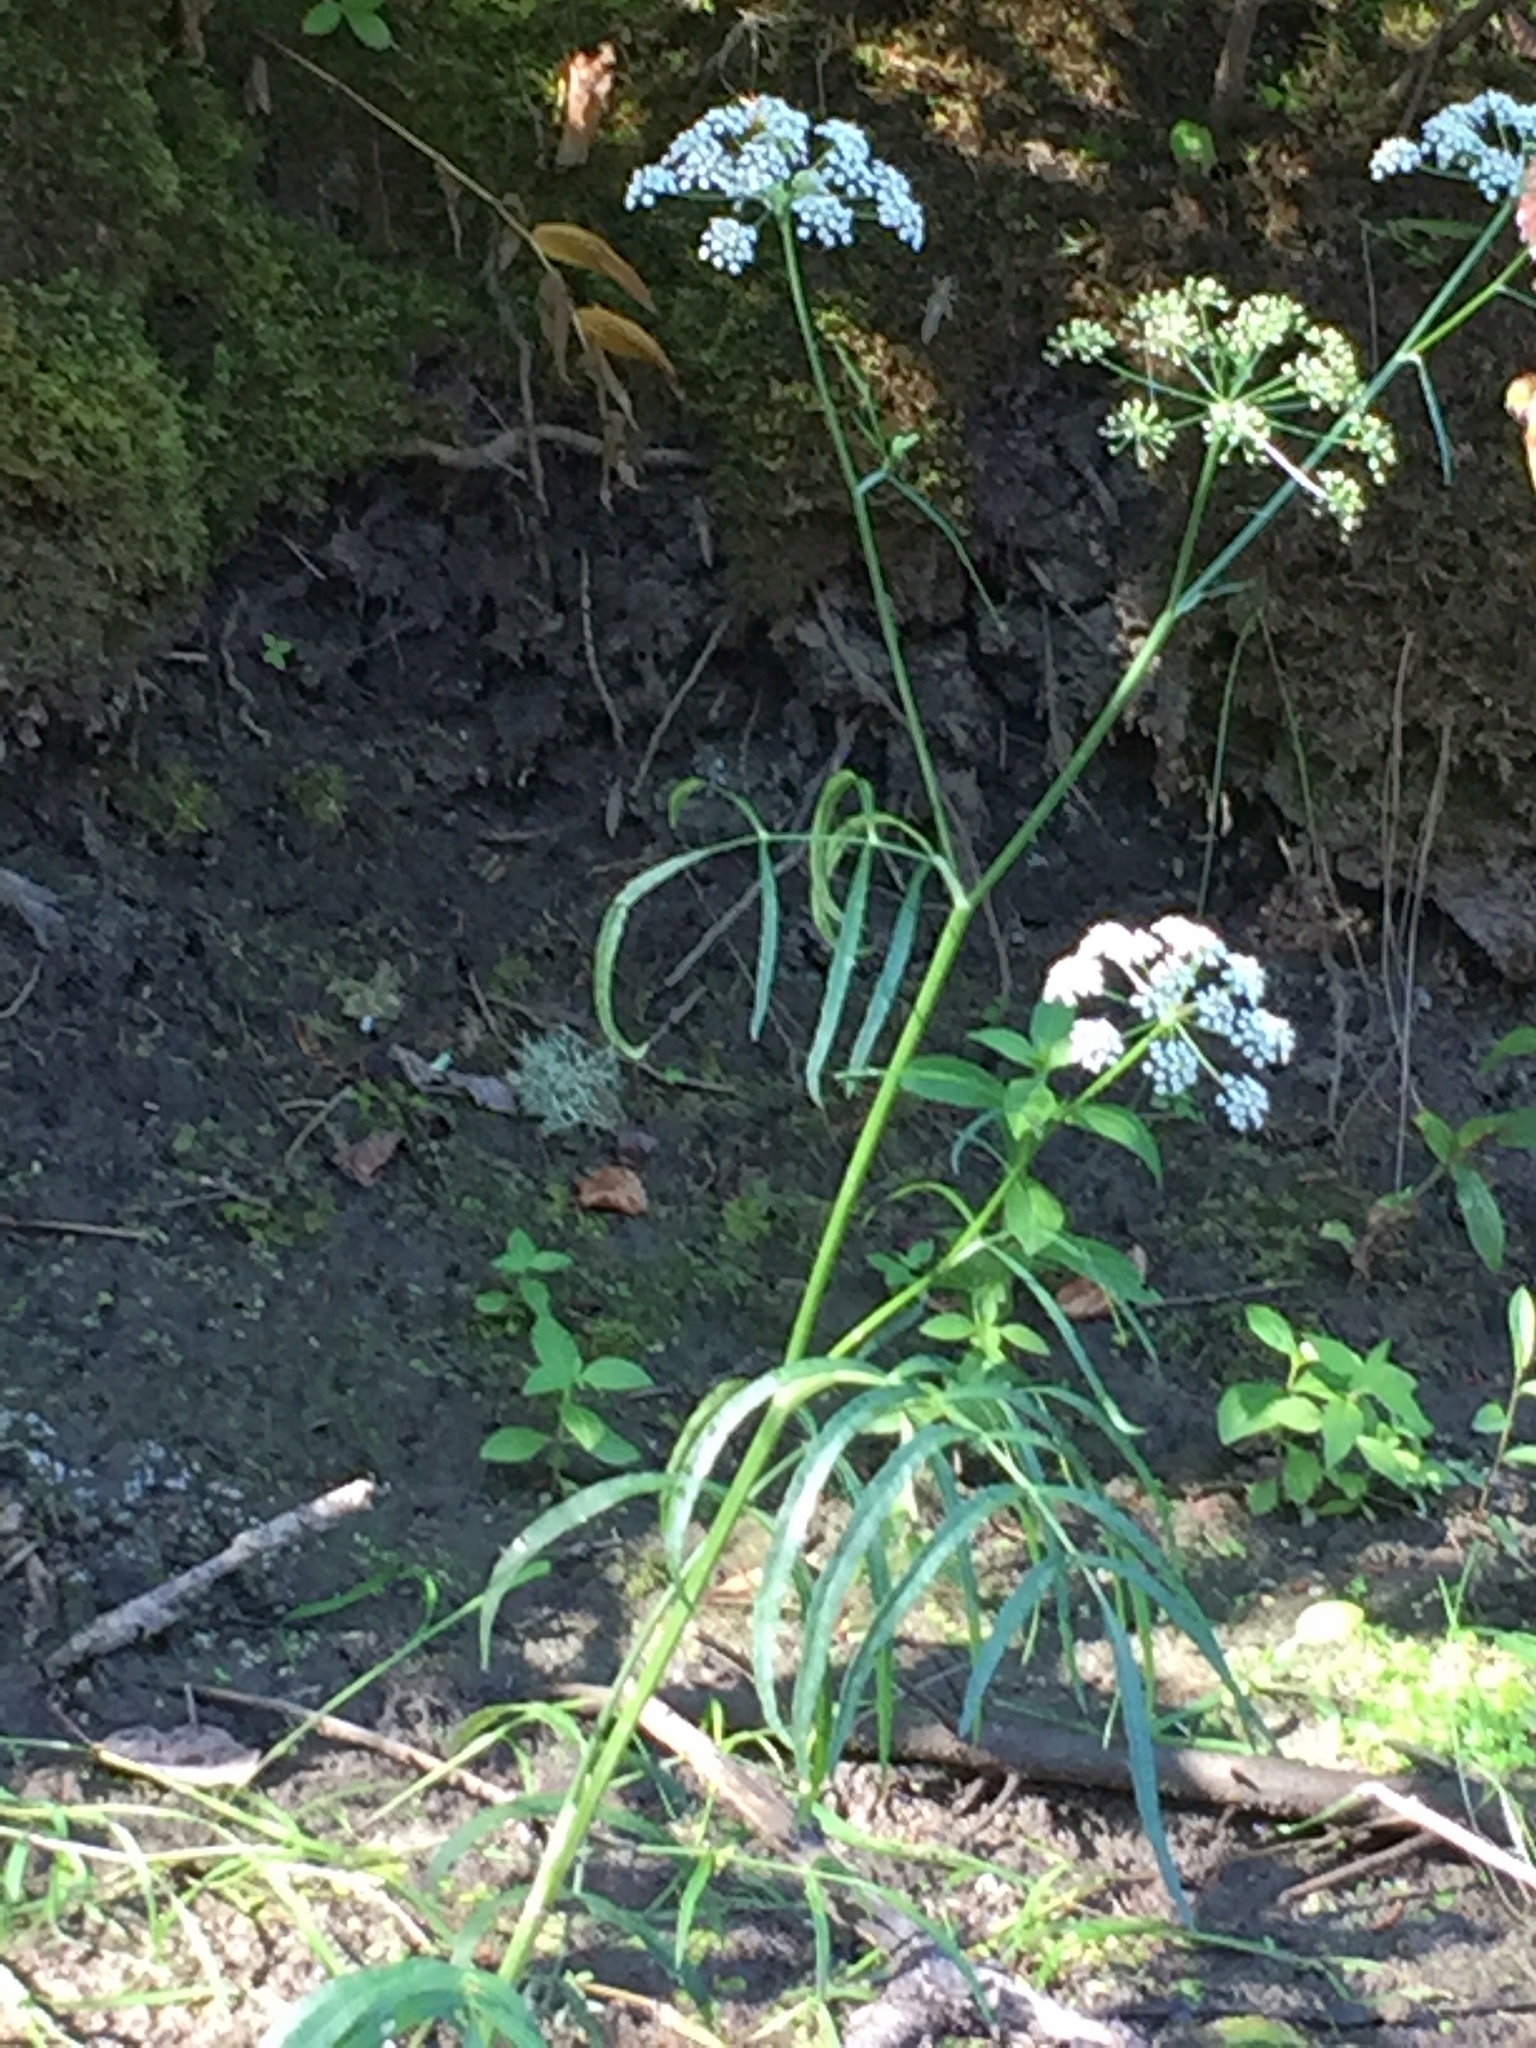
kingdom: Plantae
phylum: Tracheophyta
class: Magnoliopsida
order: Apiales
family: Apiaceae
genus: Sium
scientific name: Sium suave
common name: Hemlock water-parsnip
